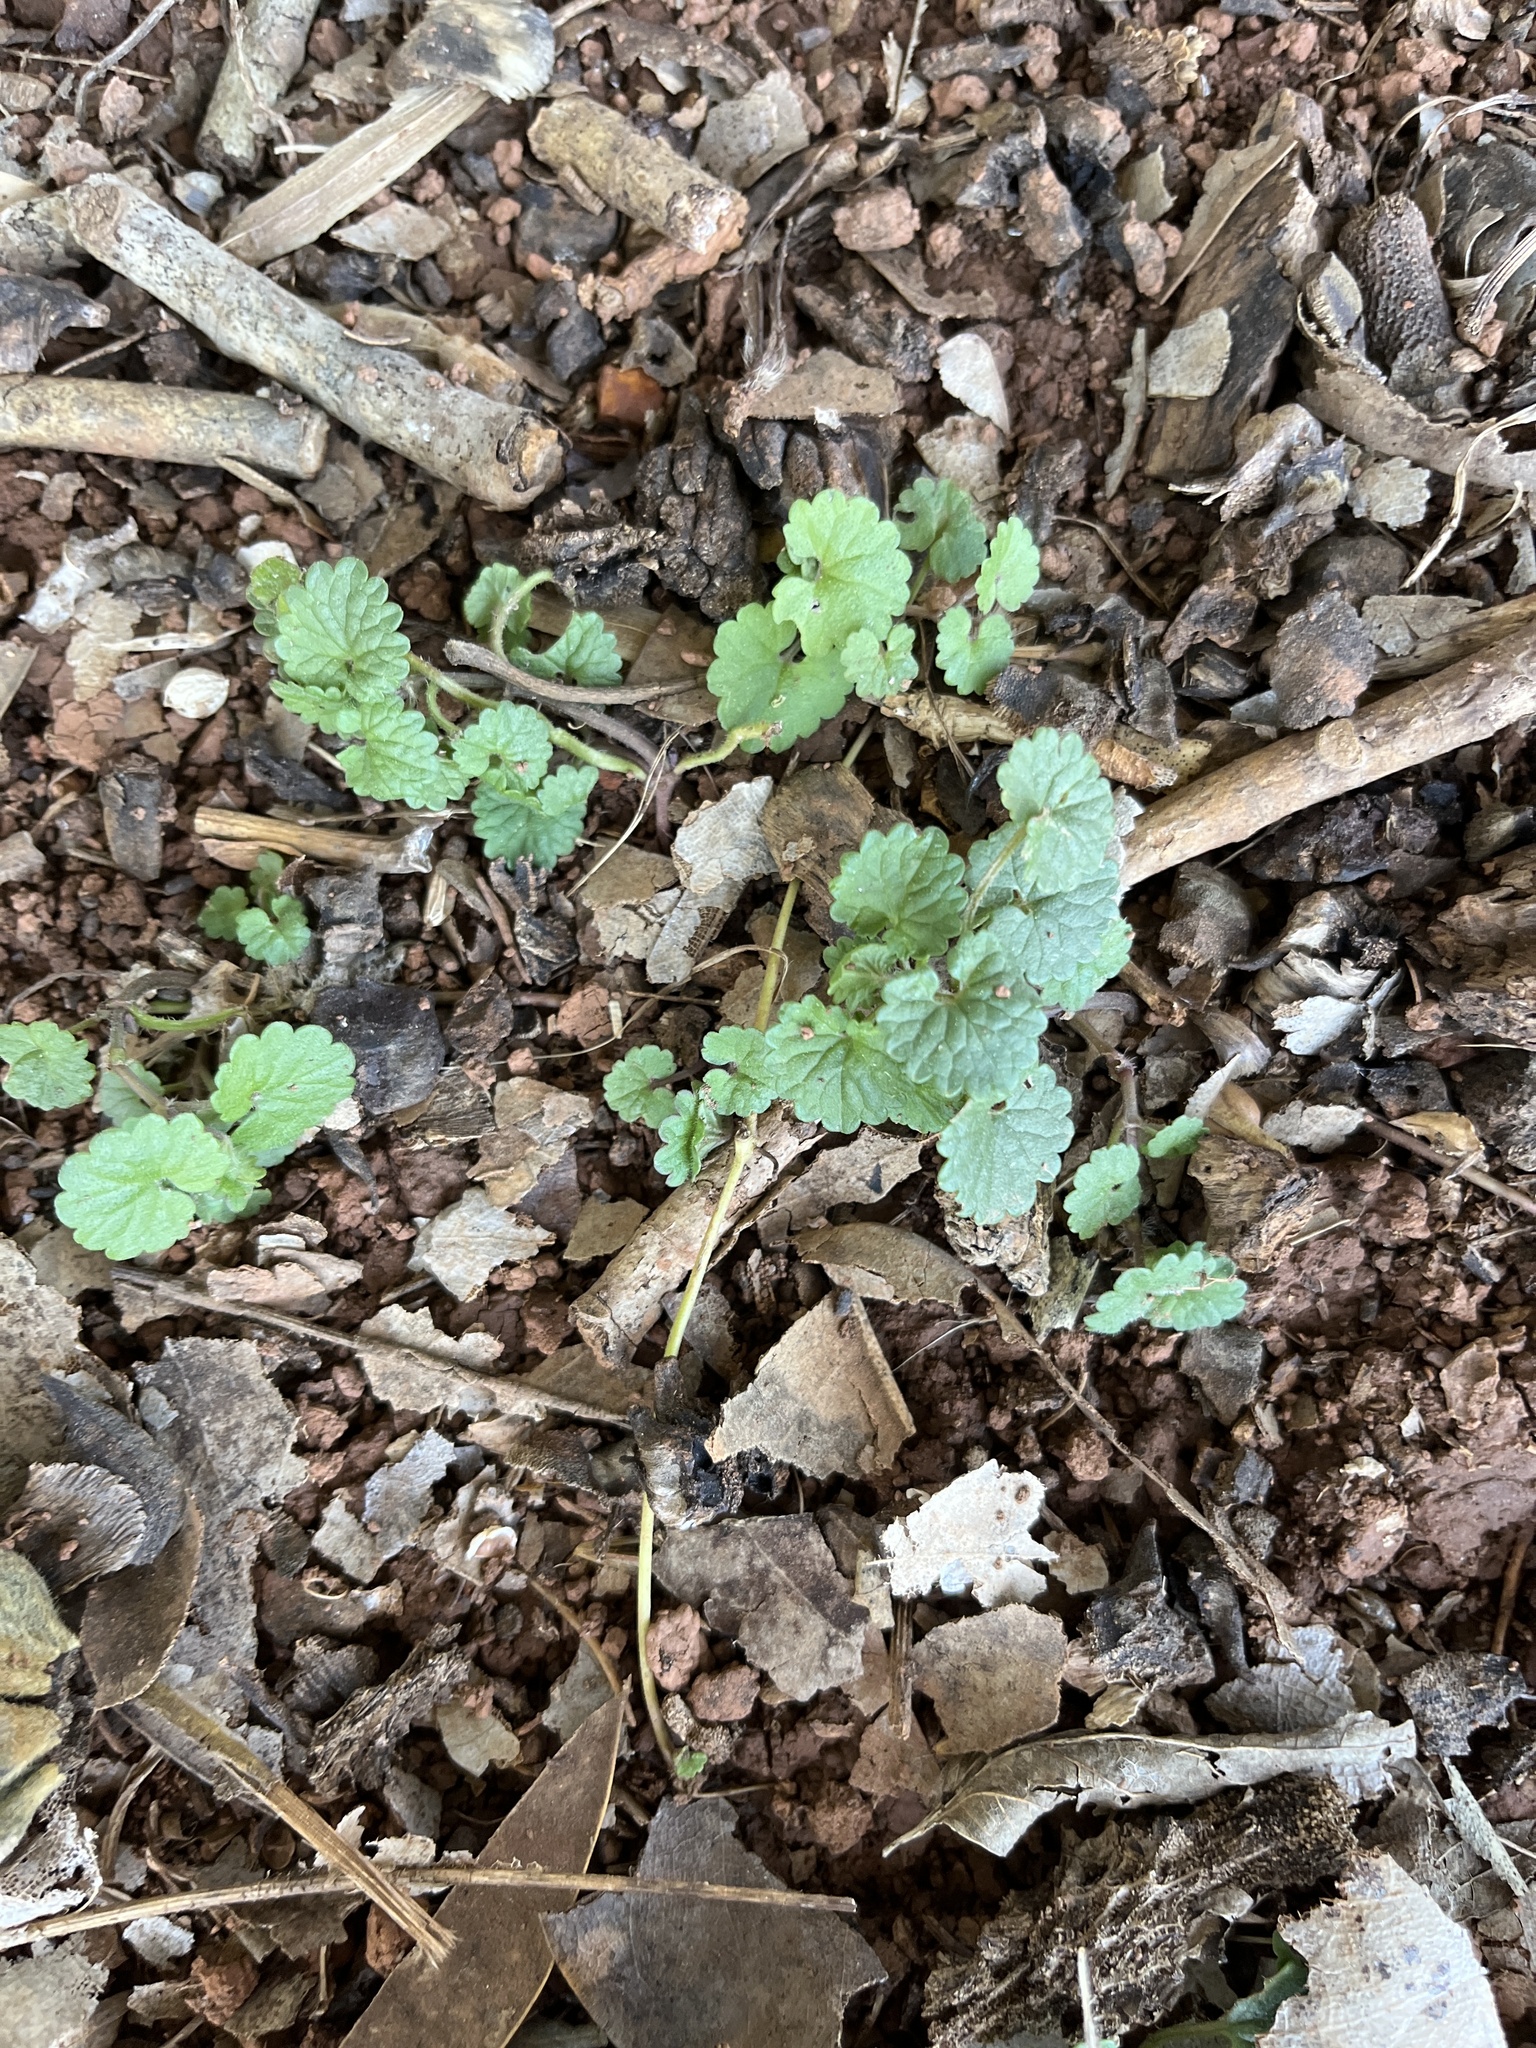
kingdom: Plantae
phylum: Tracheophyta
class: Magnoliopsida
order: Lamiales
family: Lamiaceae
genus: Glechoma
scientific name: Glechoma hederacea
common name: Ground ivy
